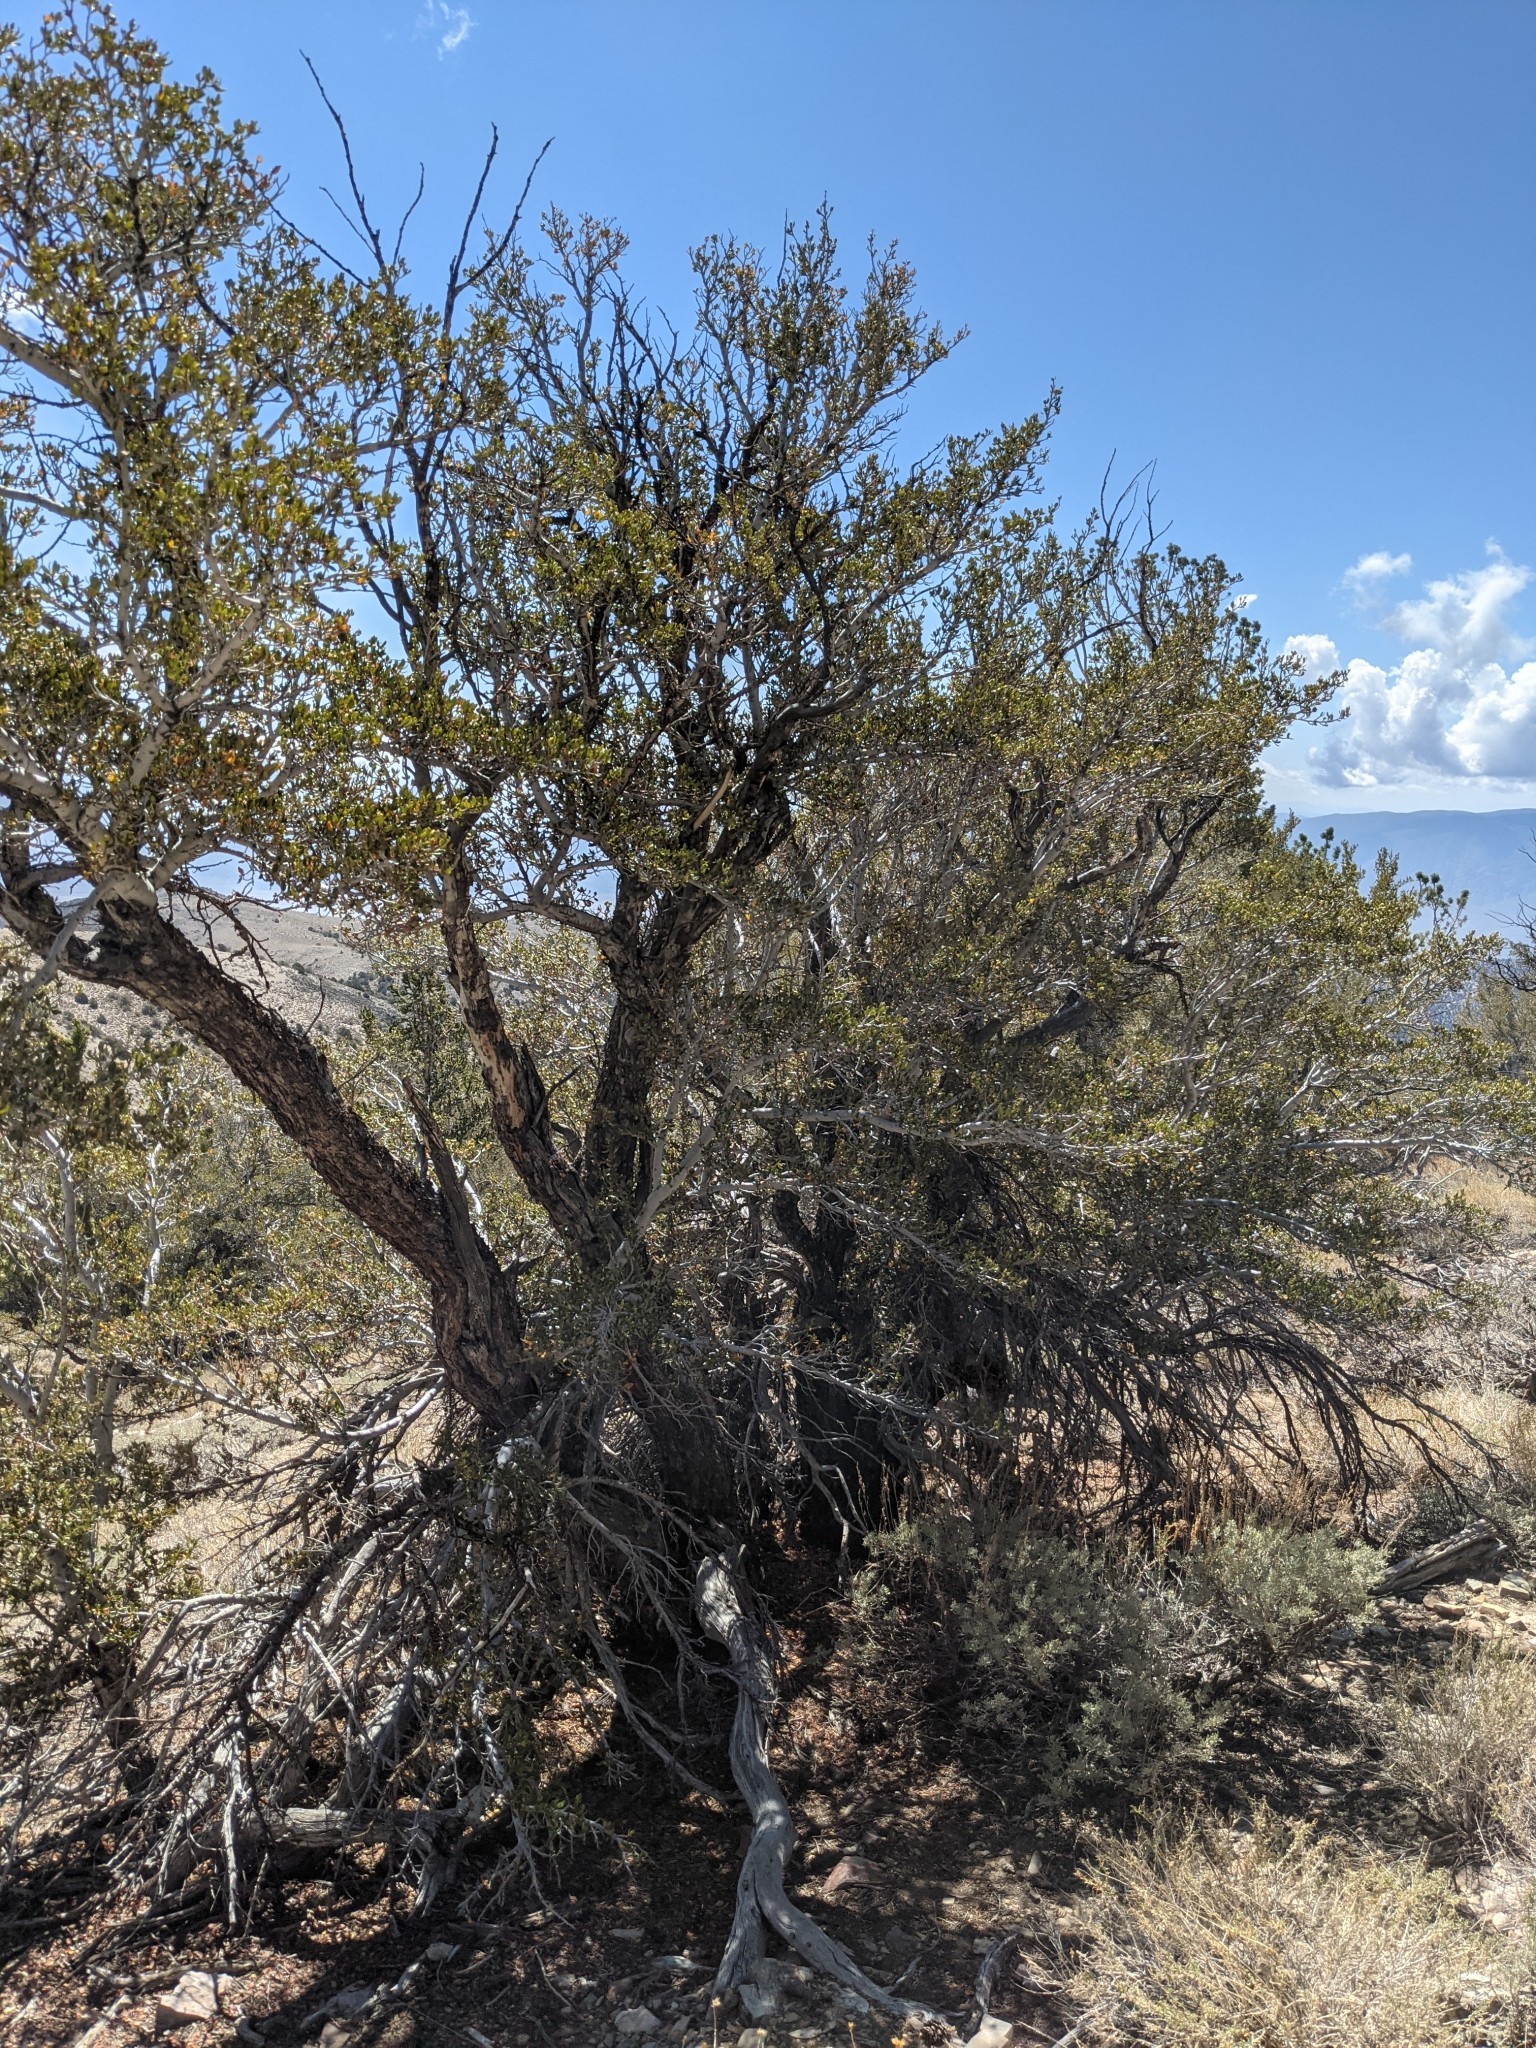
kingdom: Plantae
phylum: Tracheophyta
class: Magnoliopsida
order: Rosales
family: Rosaceae
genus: Cercocarpus
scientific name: Cercocarpus ledifolius
